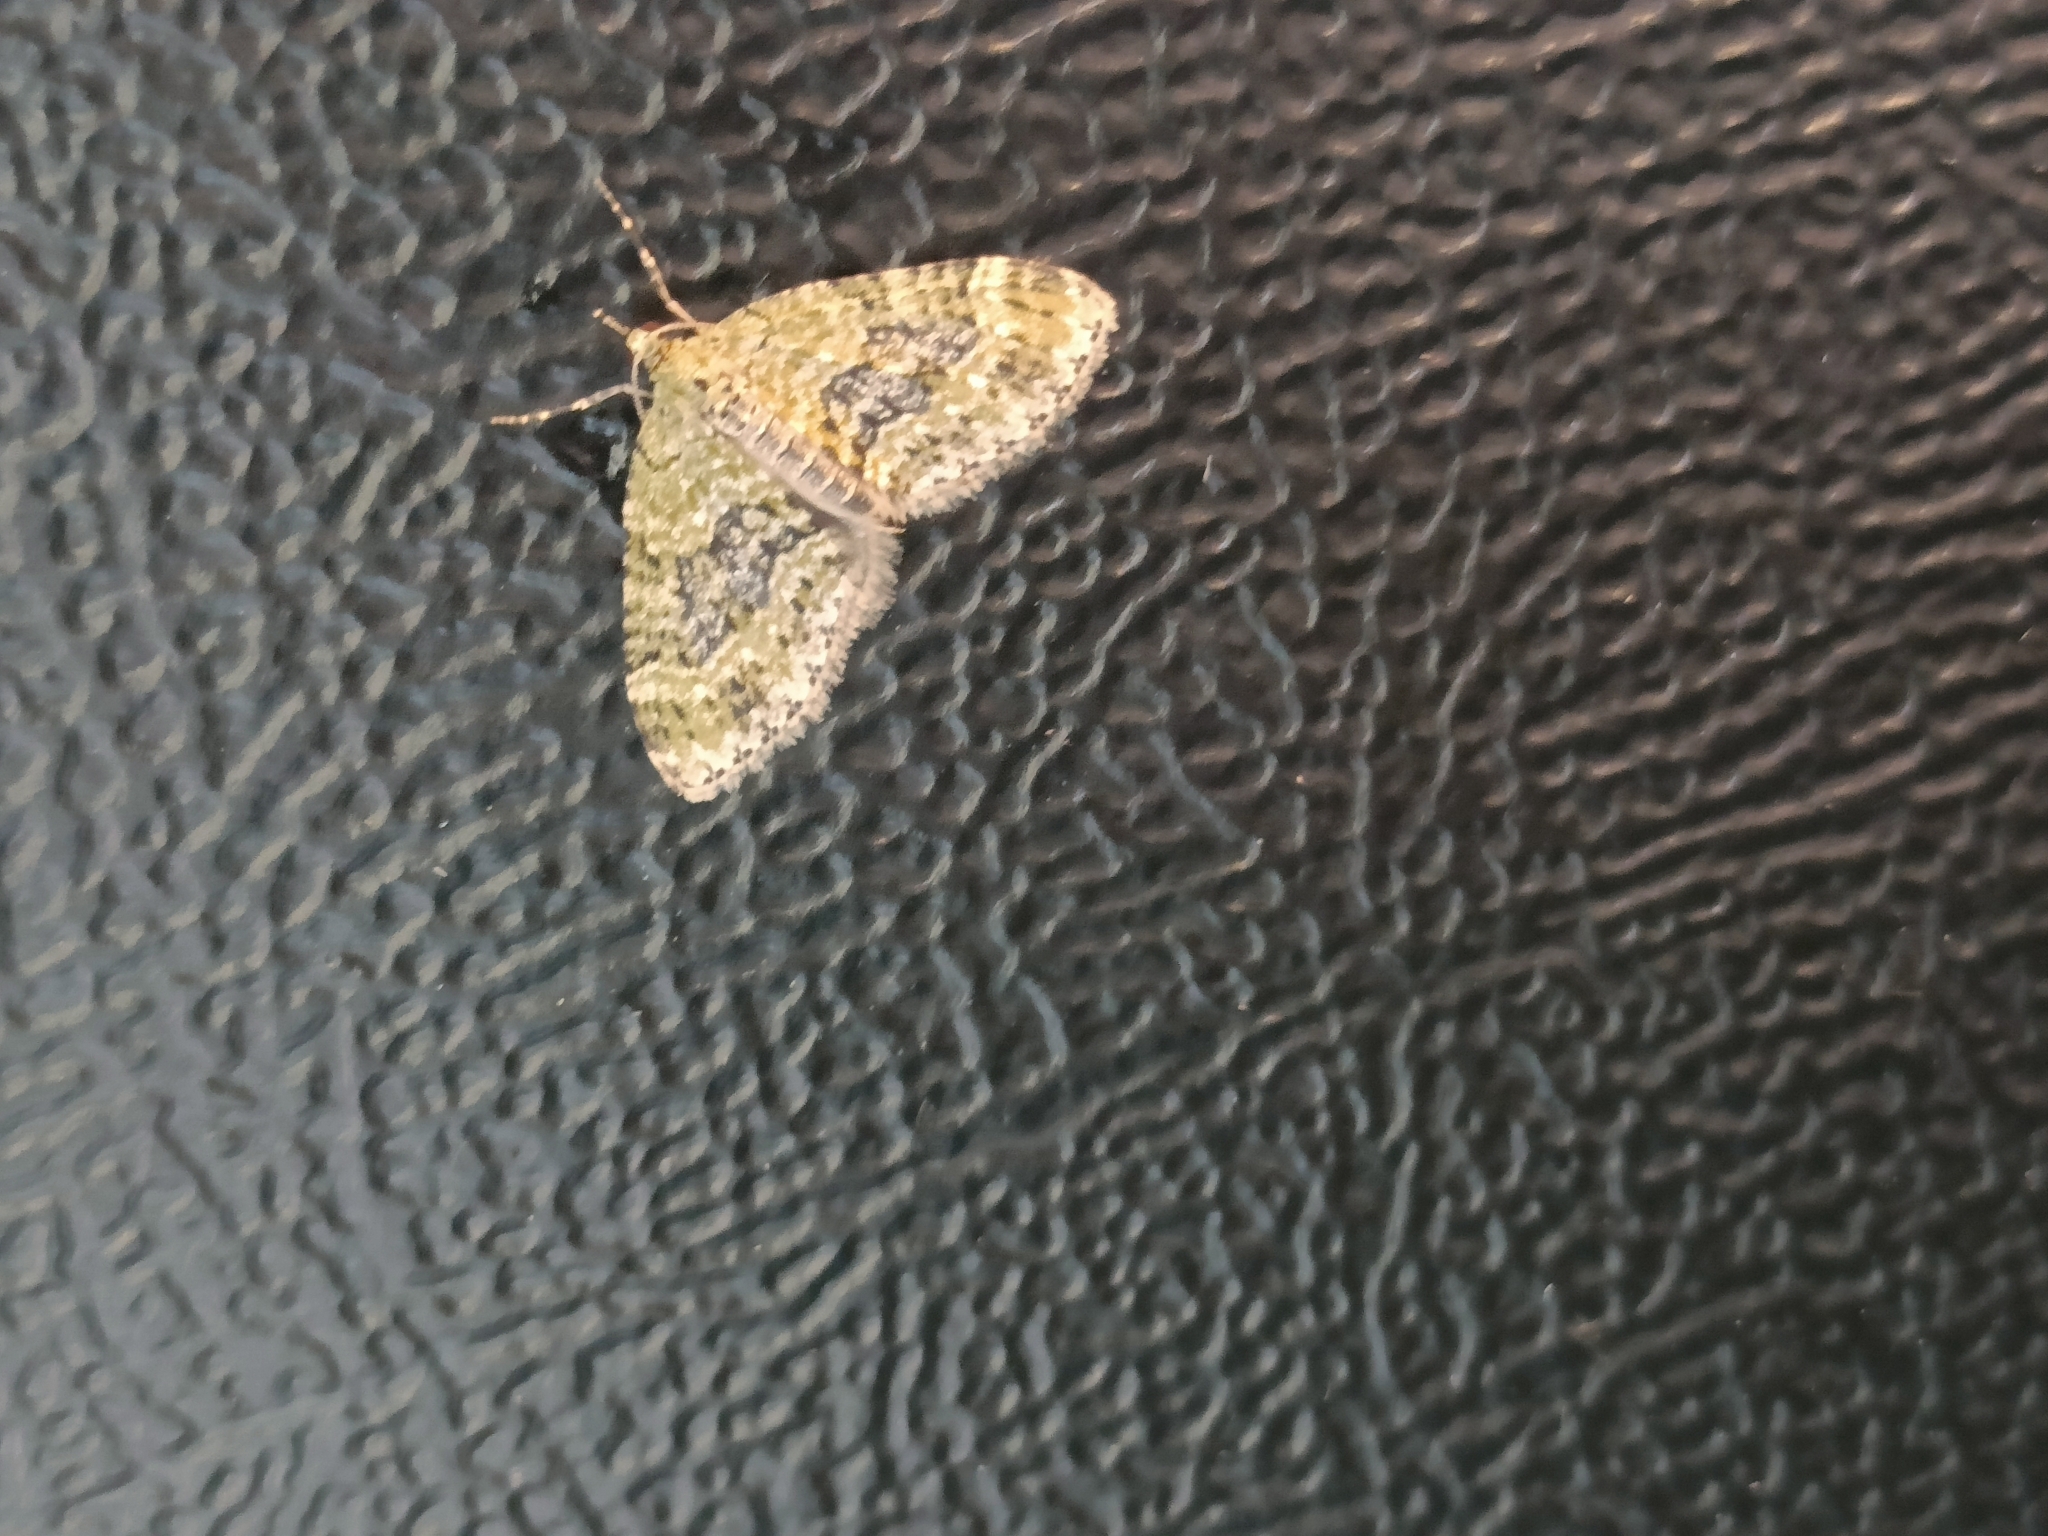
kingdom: Animalia
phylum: Arthropoda
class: Insecta
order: Lepidoptera
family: Geometridae
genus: Acasis
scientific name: Acasis viretata
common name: Yellow-barred brindle
